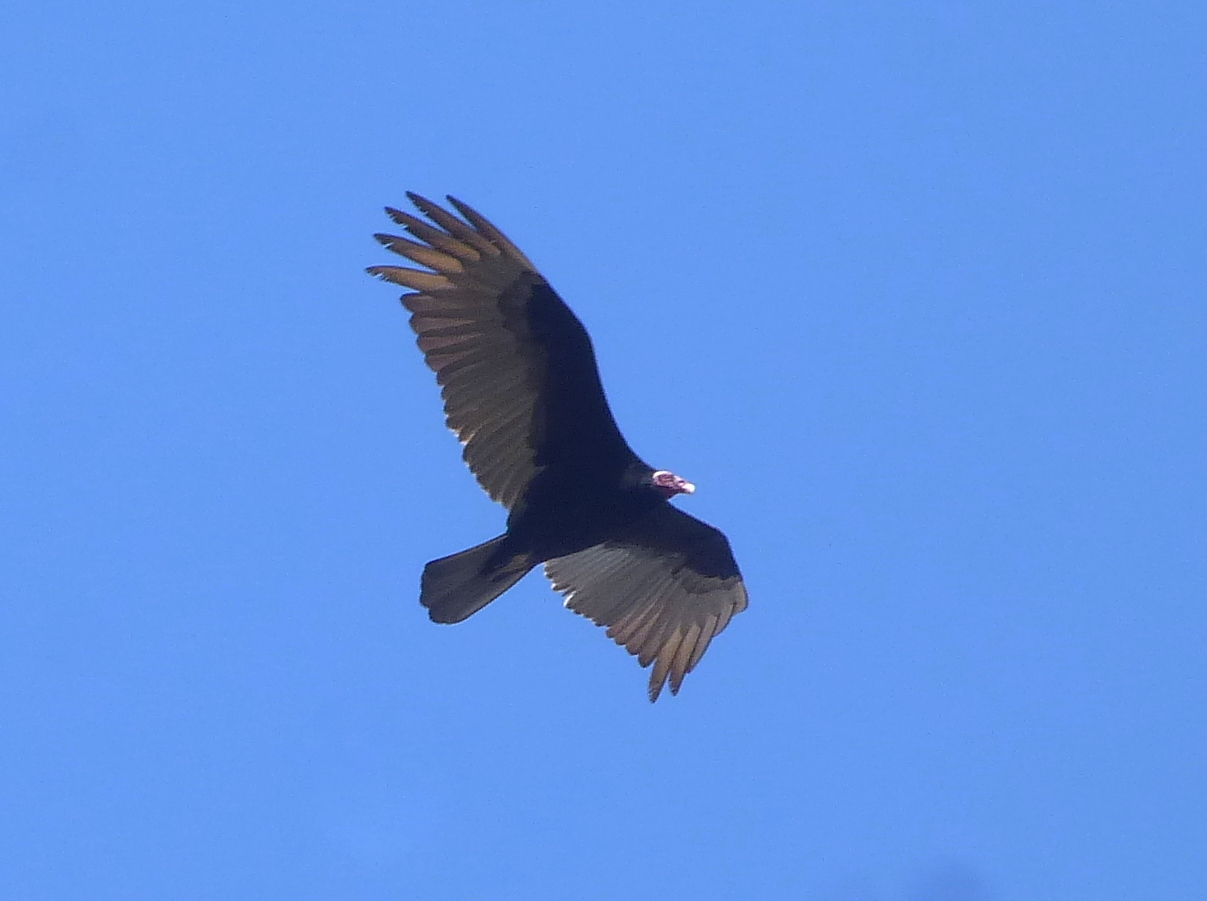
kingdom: Animalia
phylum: Chordata
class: Aves
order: Accipitriformes
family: Cathartidae
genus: Cathartes
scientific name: Cathartes aura
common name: Turkey vulture
